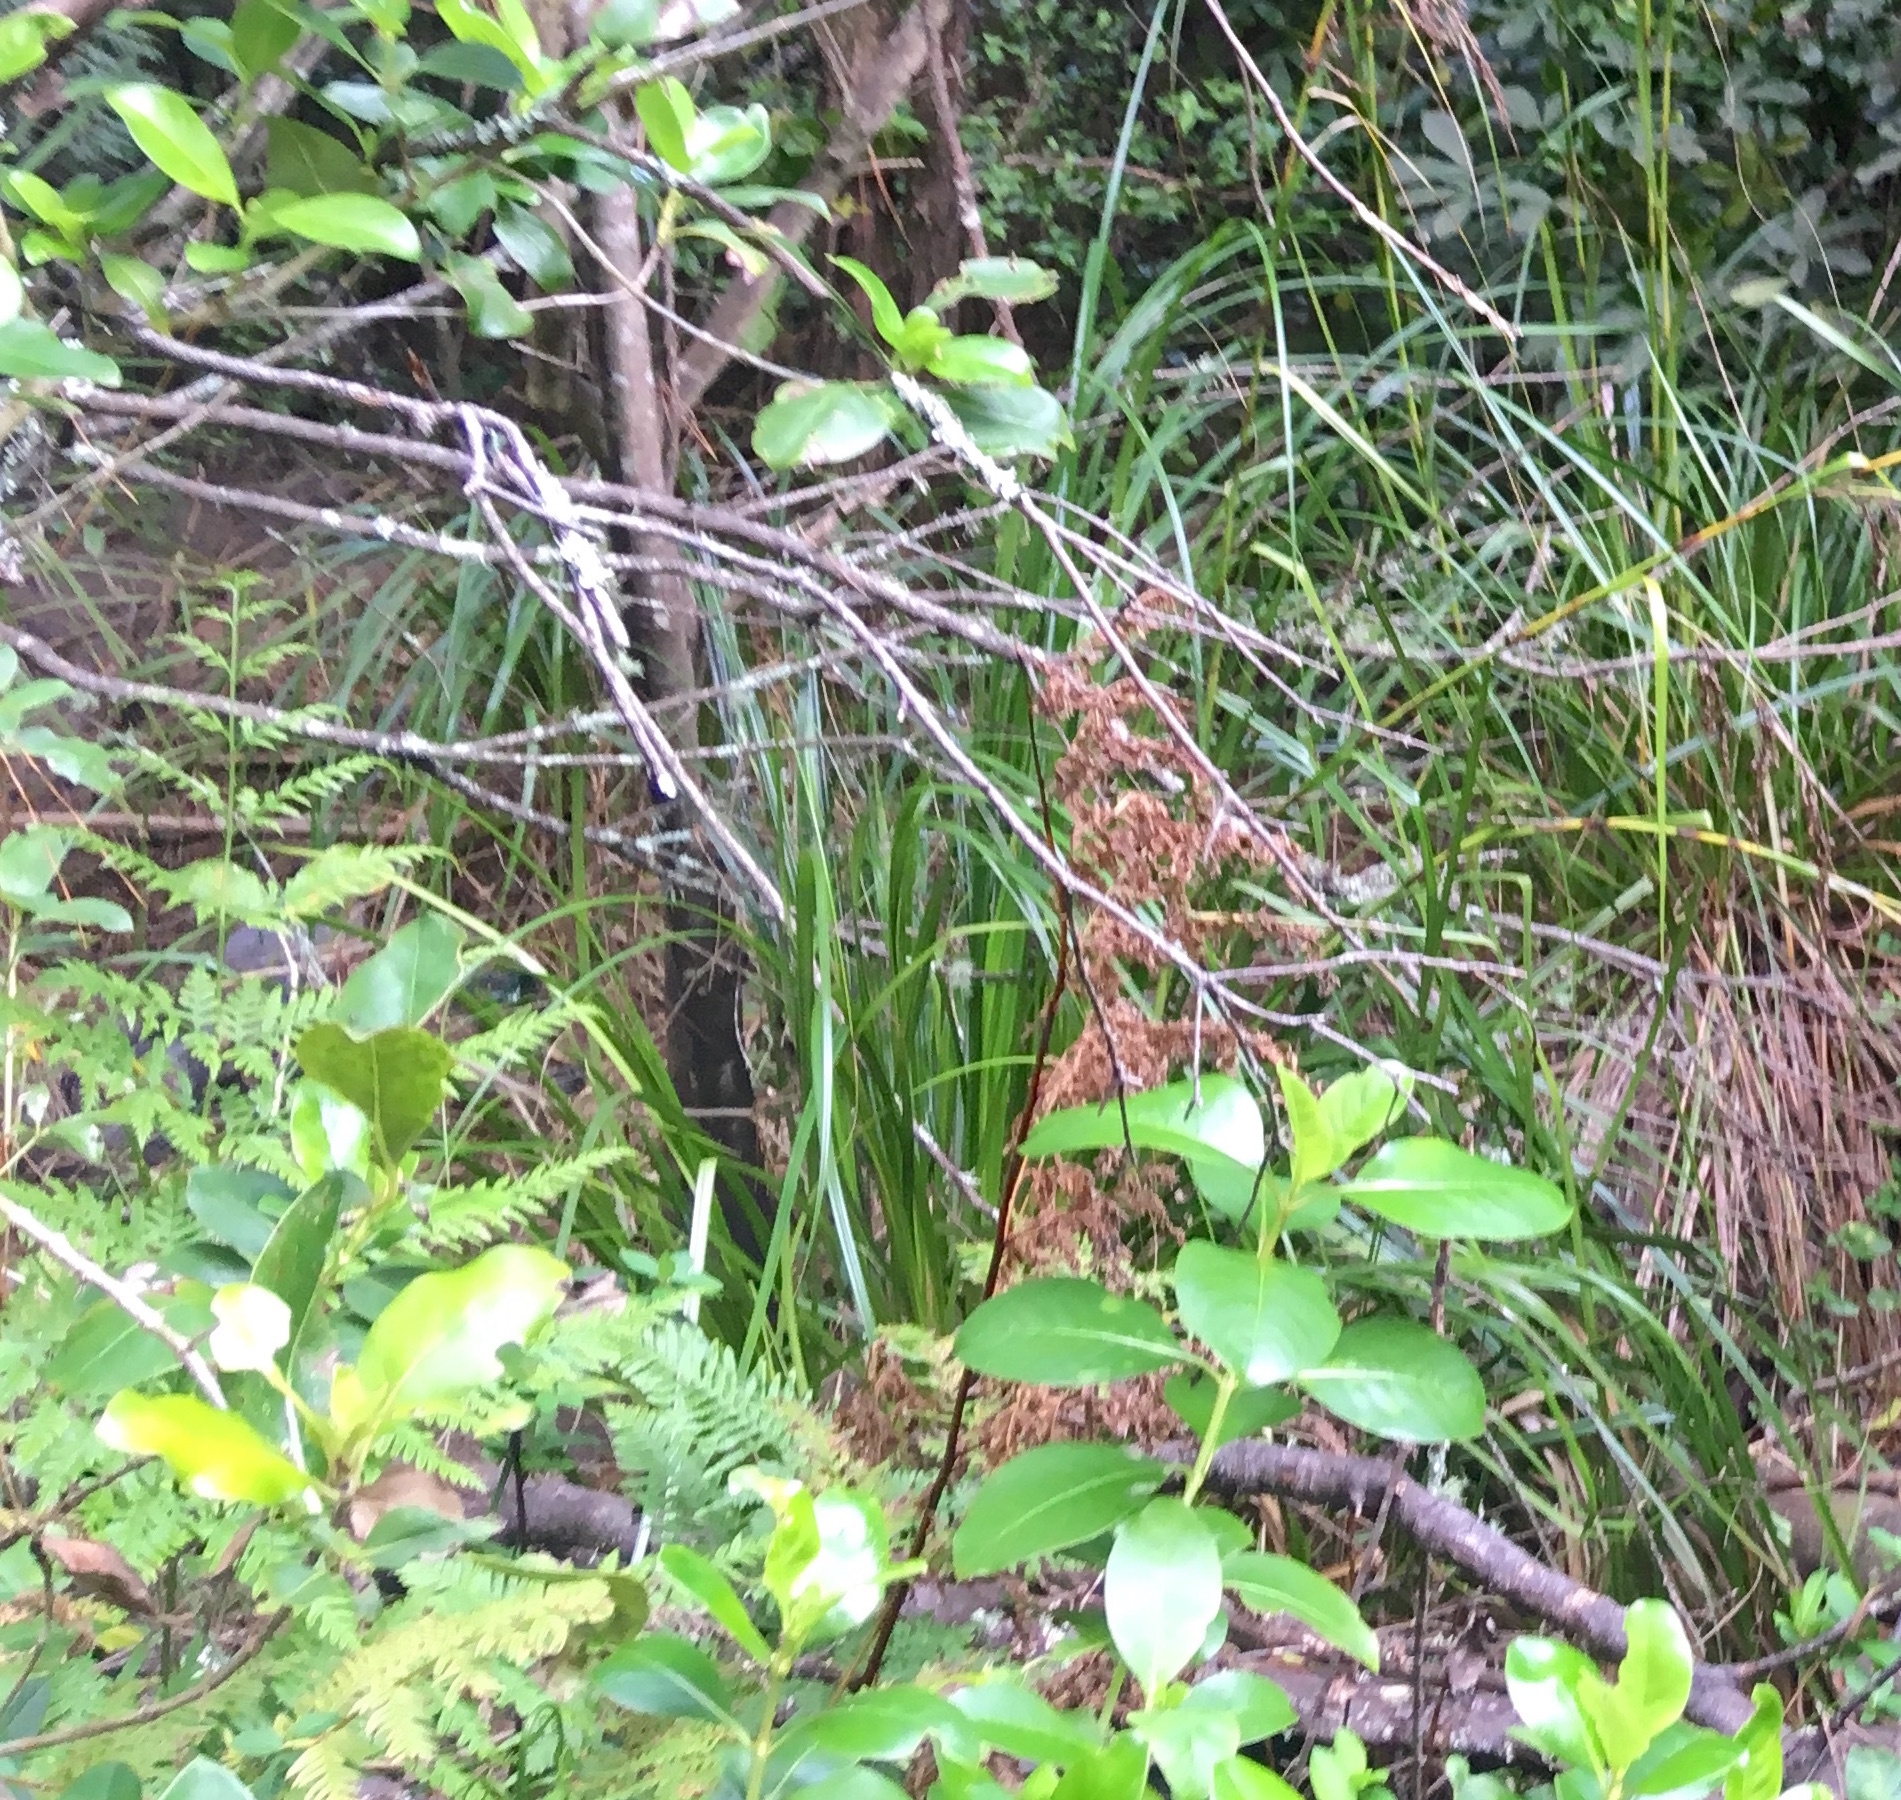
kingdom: Plantae
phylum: Tracheophyta
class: Magnoliopsida
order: Gentianales
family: Rubiaceae
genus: Coprosma
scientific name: Coprosma robusta
